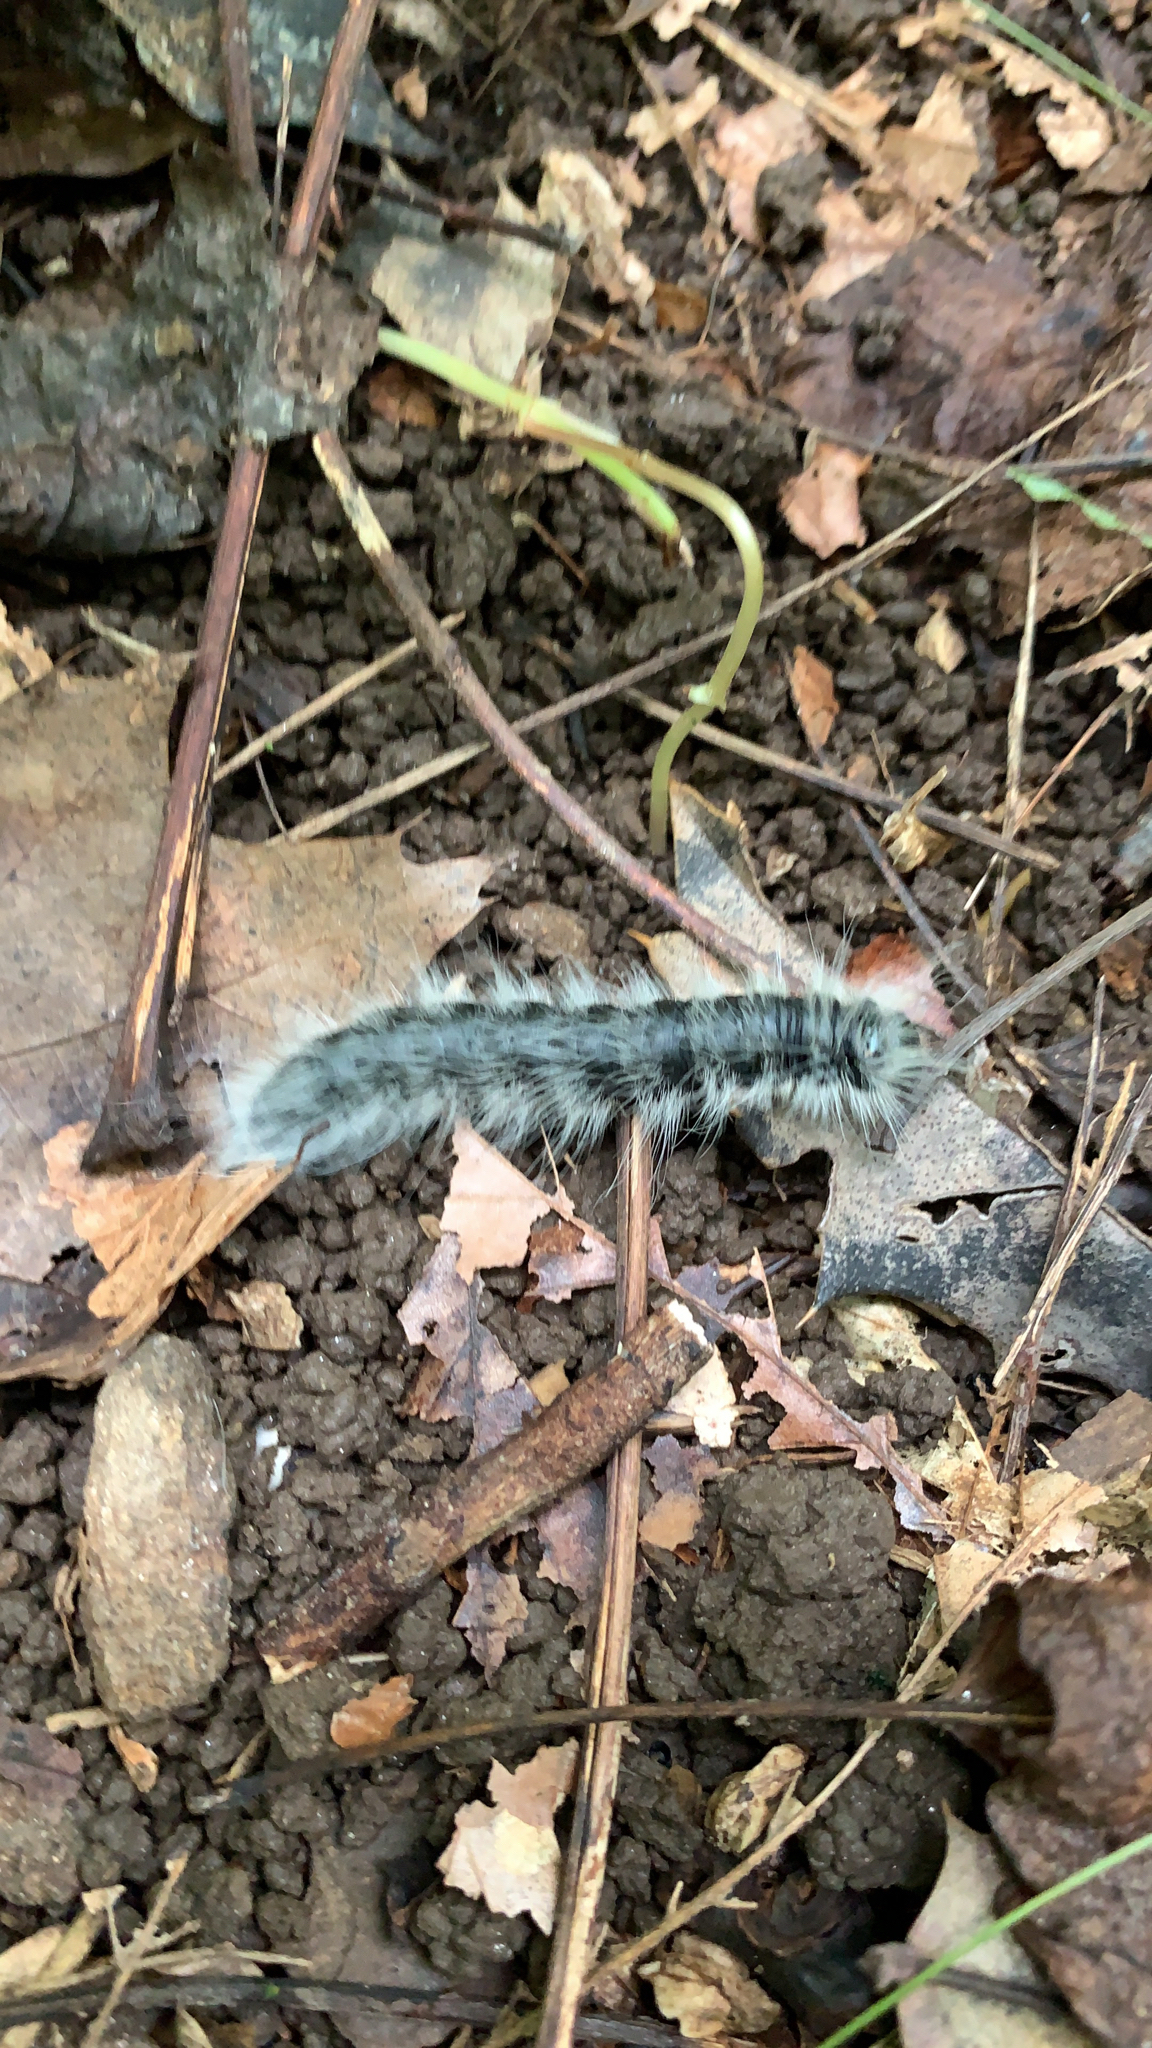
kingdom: Animalia
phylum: Arthropoda
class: Insecta
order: Lepidoptera
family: Notodontidae
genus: Datana
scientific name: Datana integerrima
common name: Walnut caterpillar
